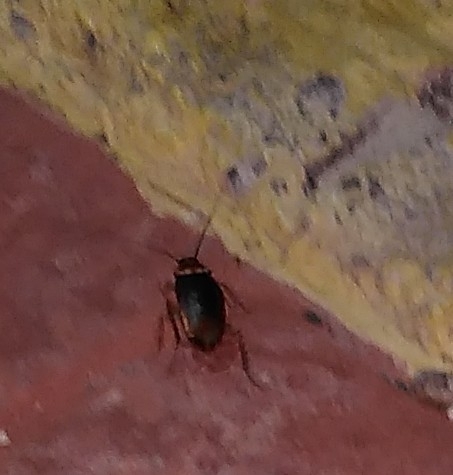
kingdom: Animalia
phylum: Arthropoda
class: Insecta
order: Blattodea
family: Blattidae
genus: Periplaneta
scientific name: Periplaneta americana
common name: American cockroach
